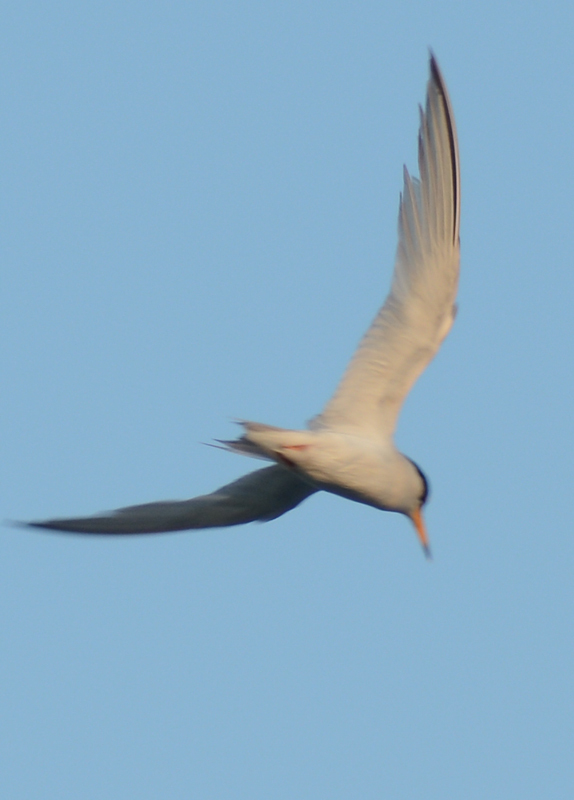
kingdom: Animalia
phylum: Chordata
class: Aves
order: Charadriiformes
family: Laridae
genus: Sternula
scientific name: Sternula antillarum
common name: Least tern
